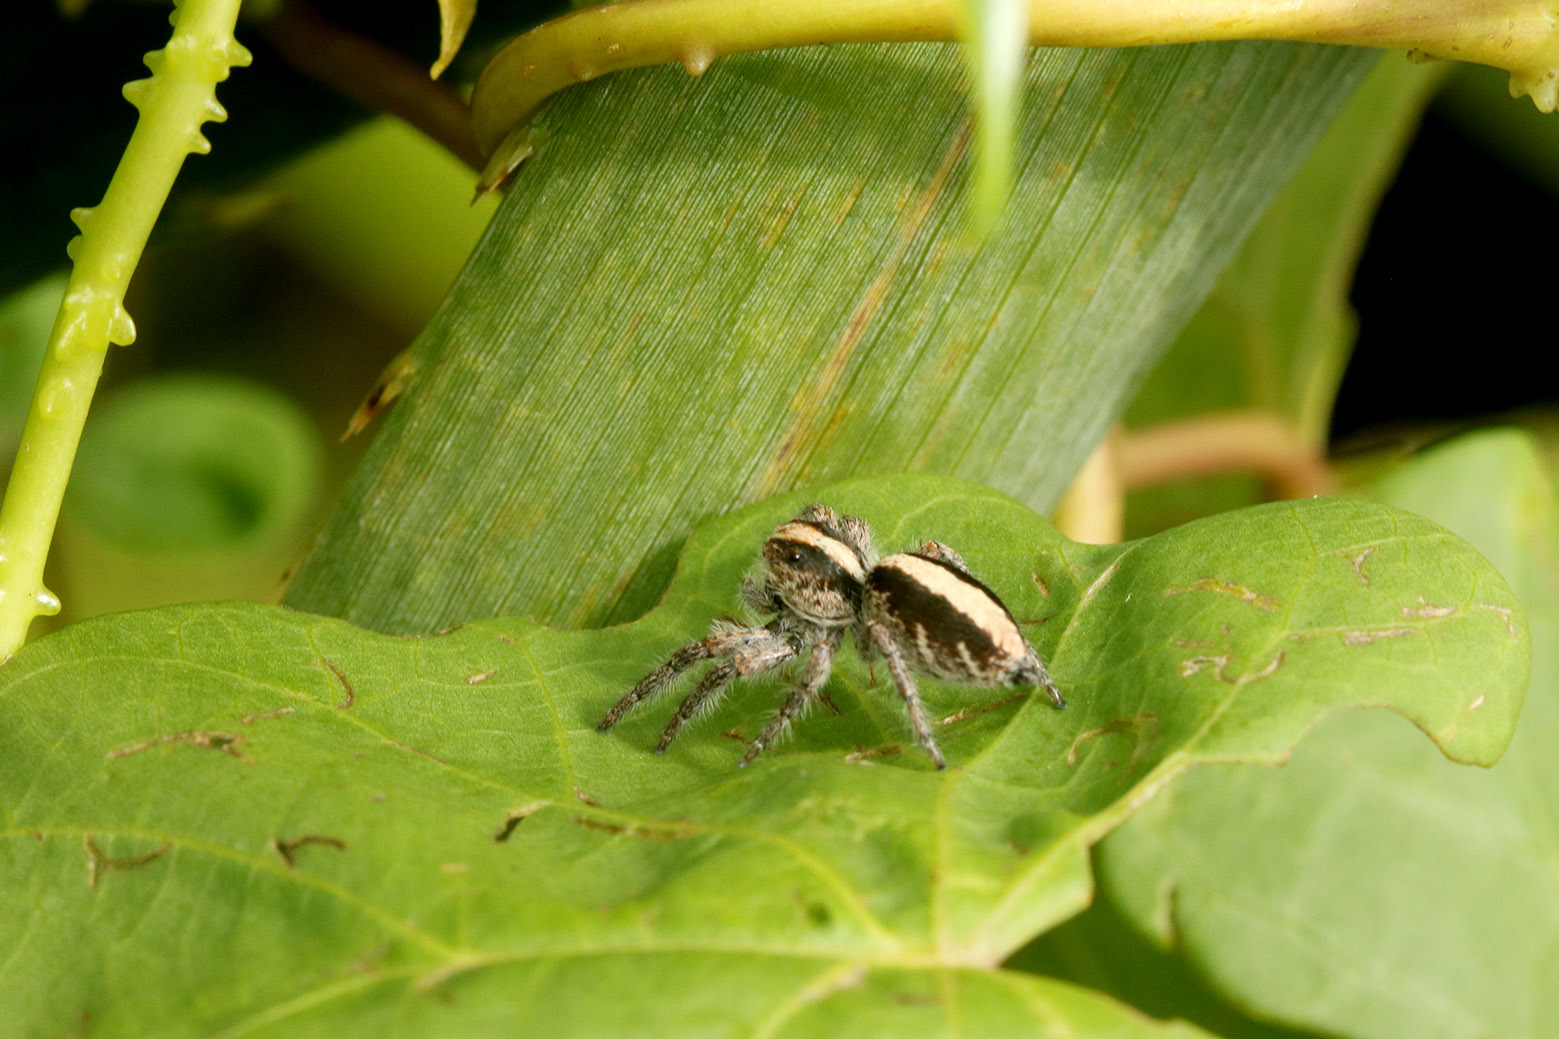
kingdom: Animalia
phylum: Arthropoda
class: Arachnida
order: Araneae
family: Salticidae
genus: Megafreya
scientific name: Megafreya sutrix
